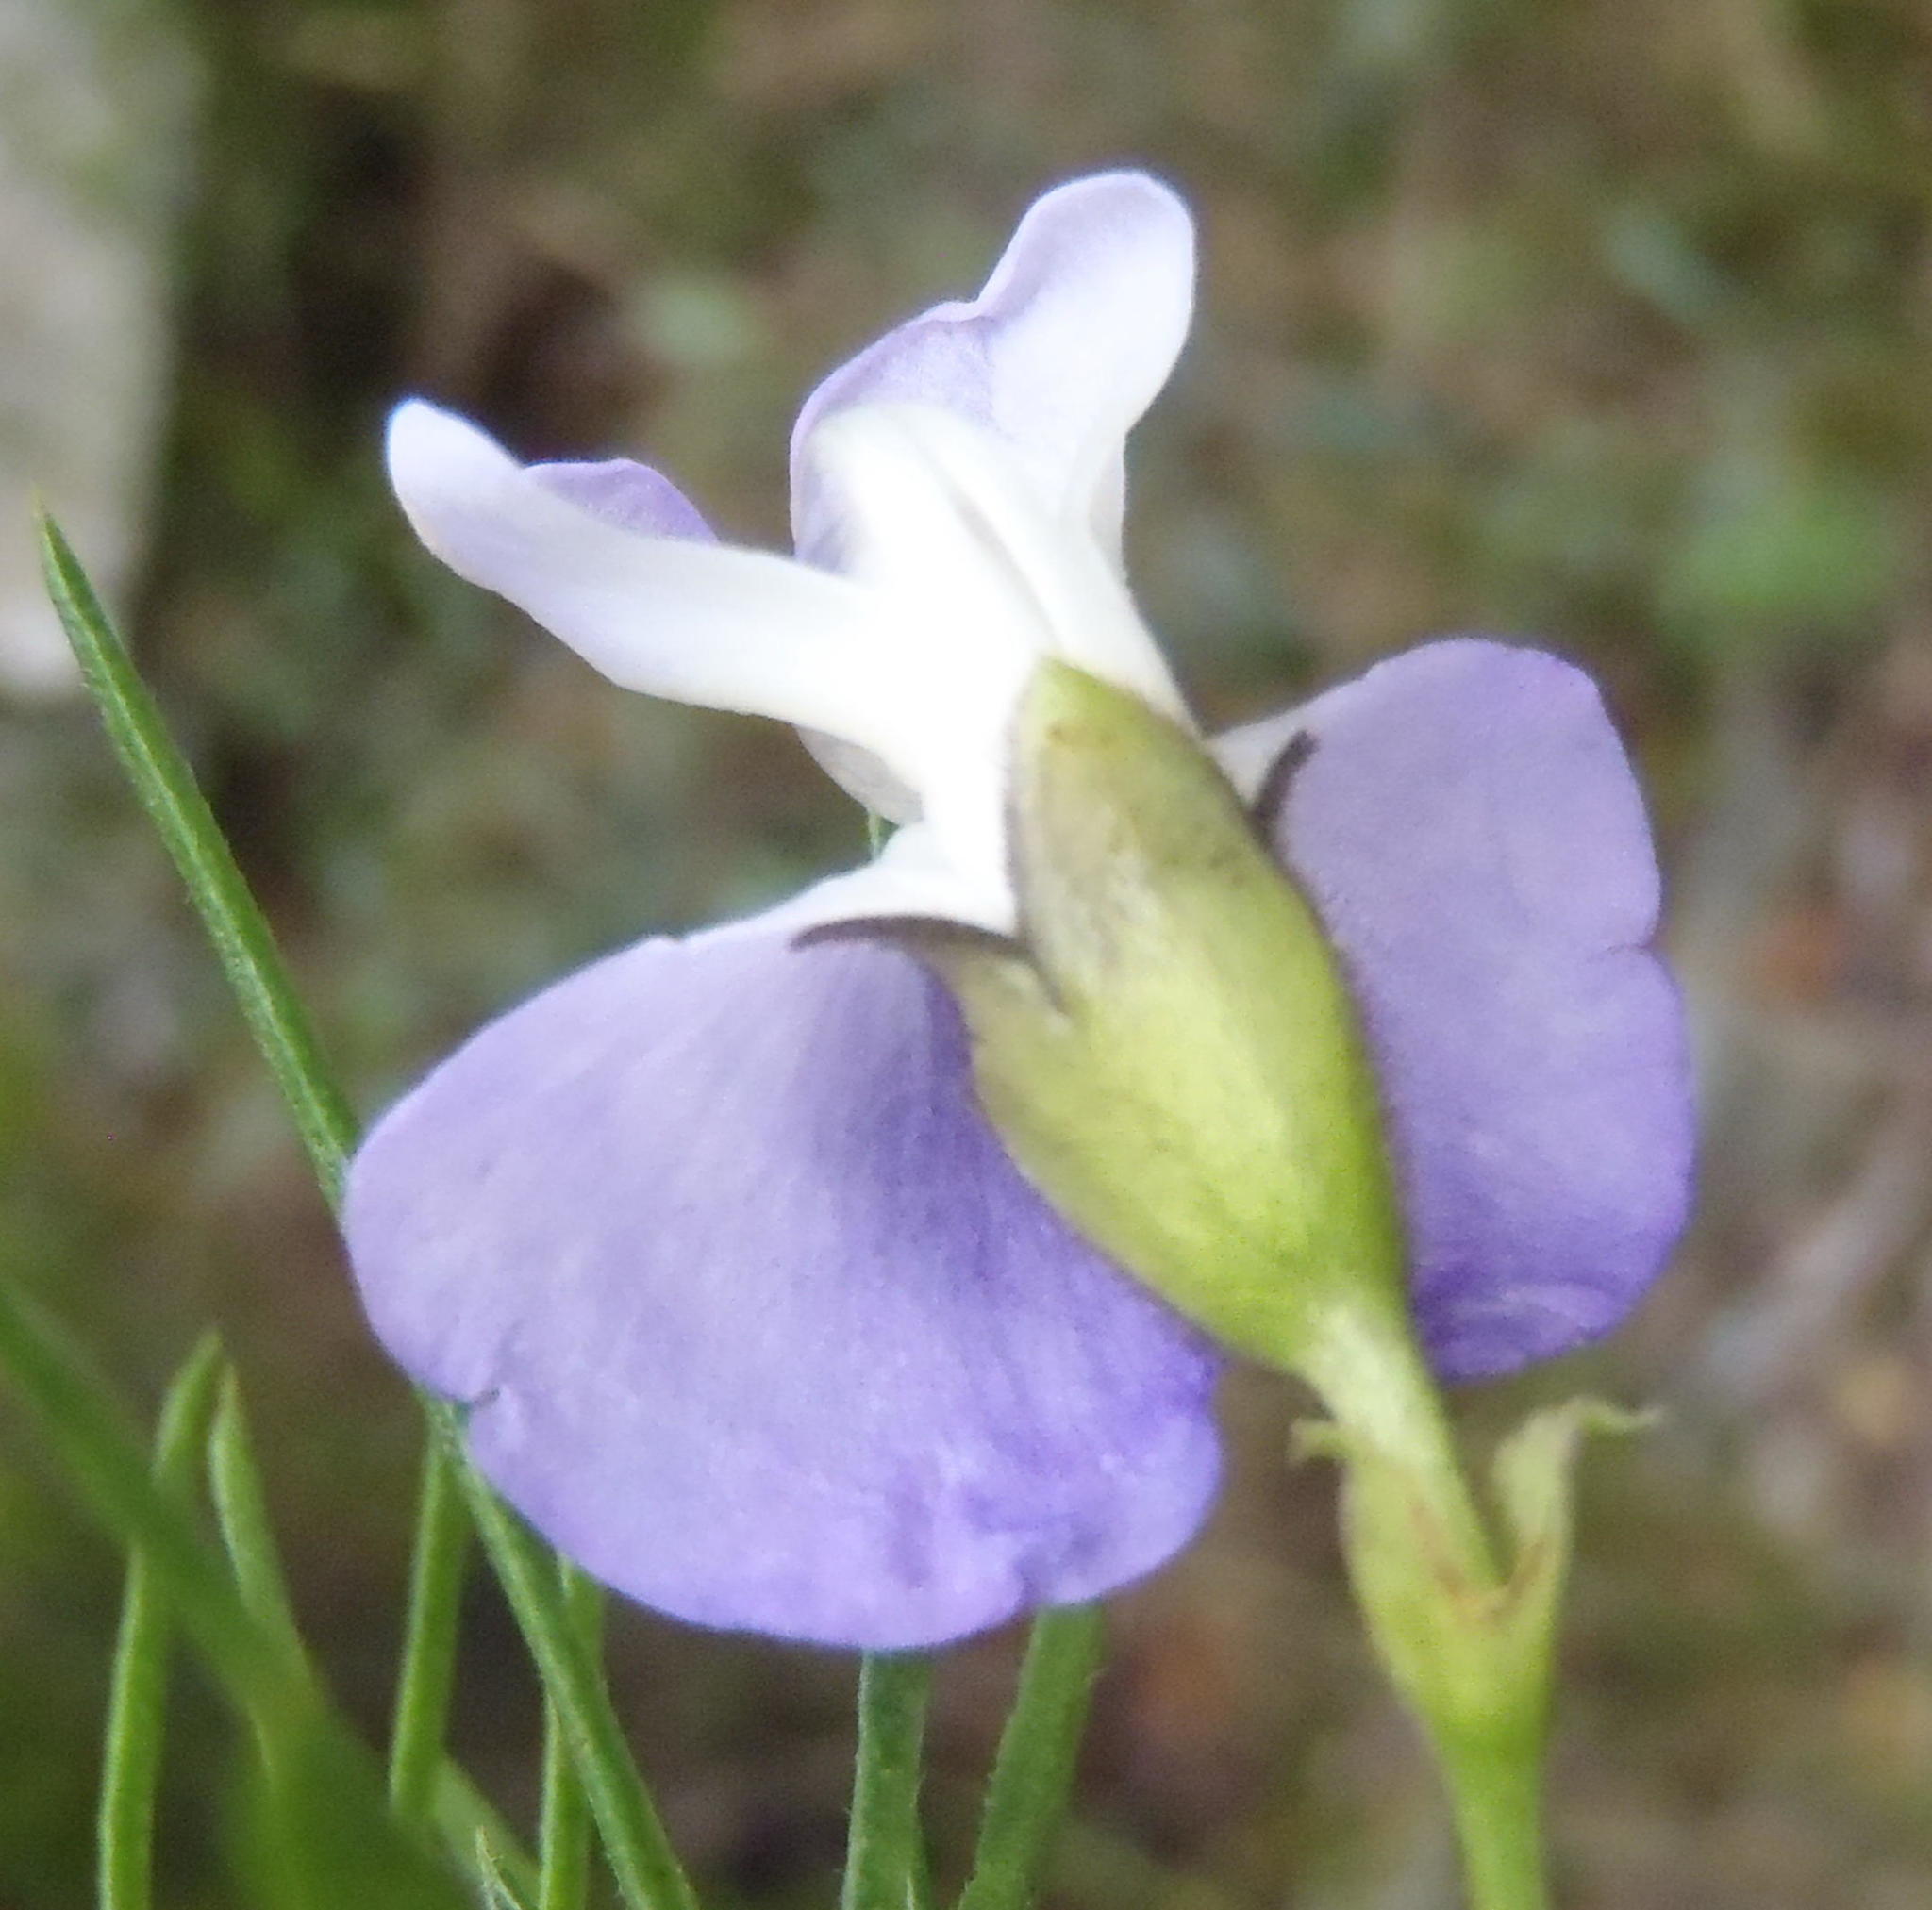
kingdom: Plantae
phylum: Tracheophyta
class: Magnoliopsida
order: Fabales
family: Fabaceae
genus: Psoralea
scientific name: Psoralea affinis
